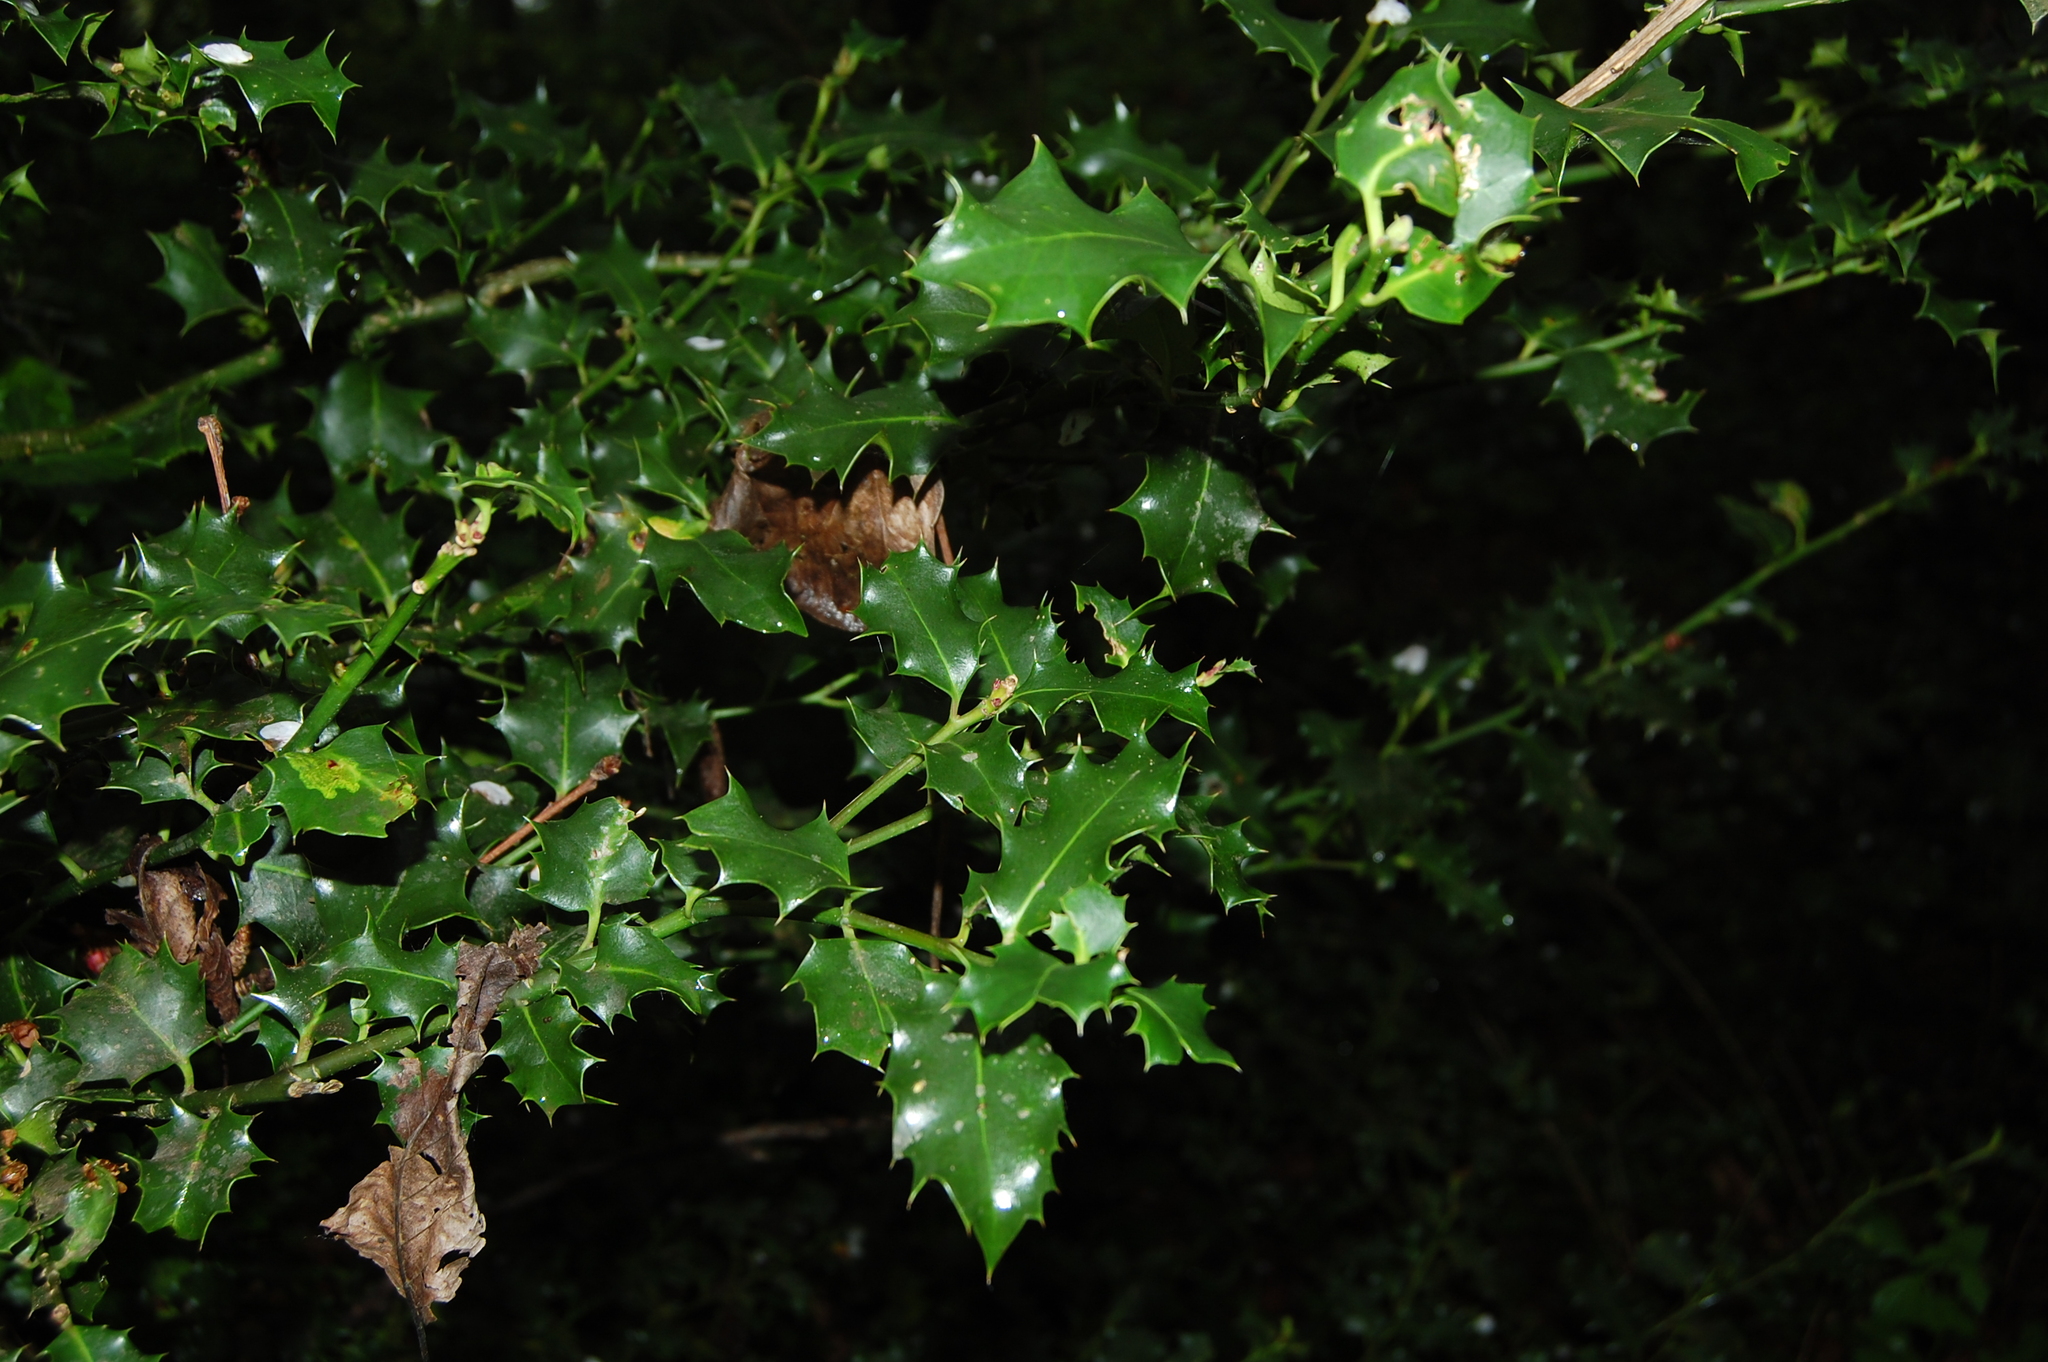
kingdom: Plantae
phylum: Tracheophyta
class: Magnoliopsida
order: Aquifoliales
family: Aquifoliaceae
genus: Ilex
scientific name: Ilex aquifolium
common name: English holly
